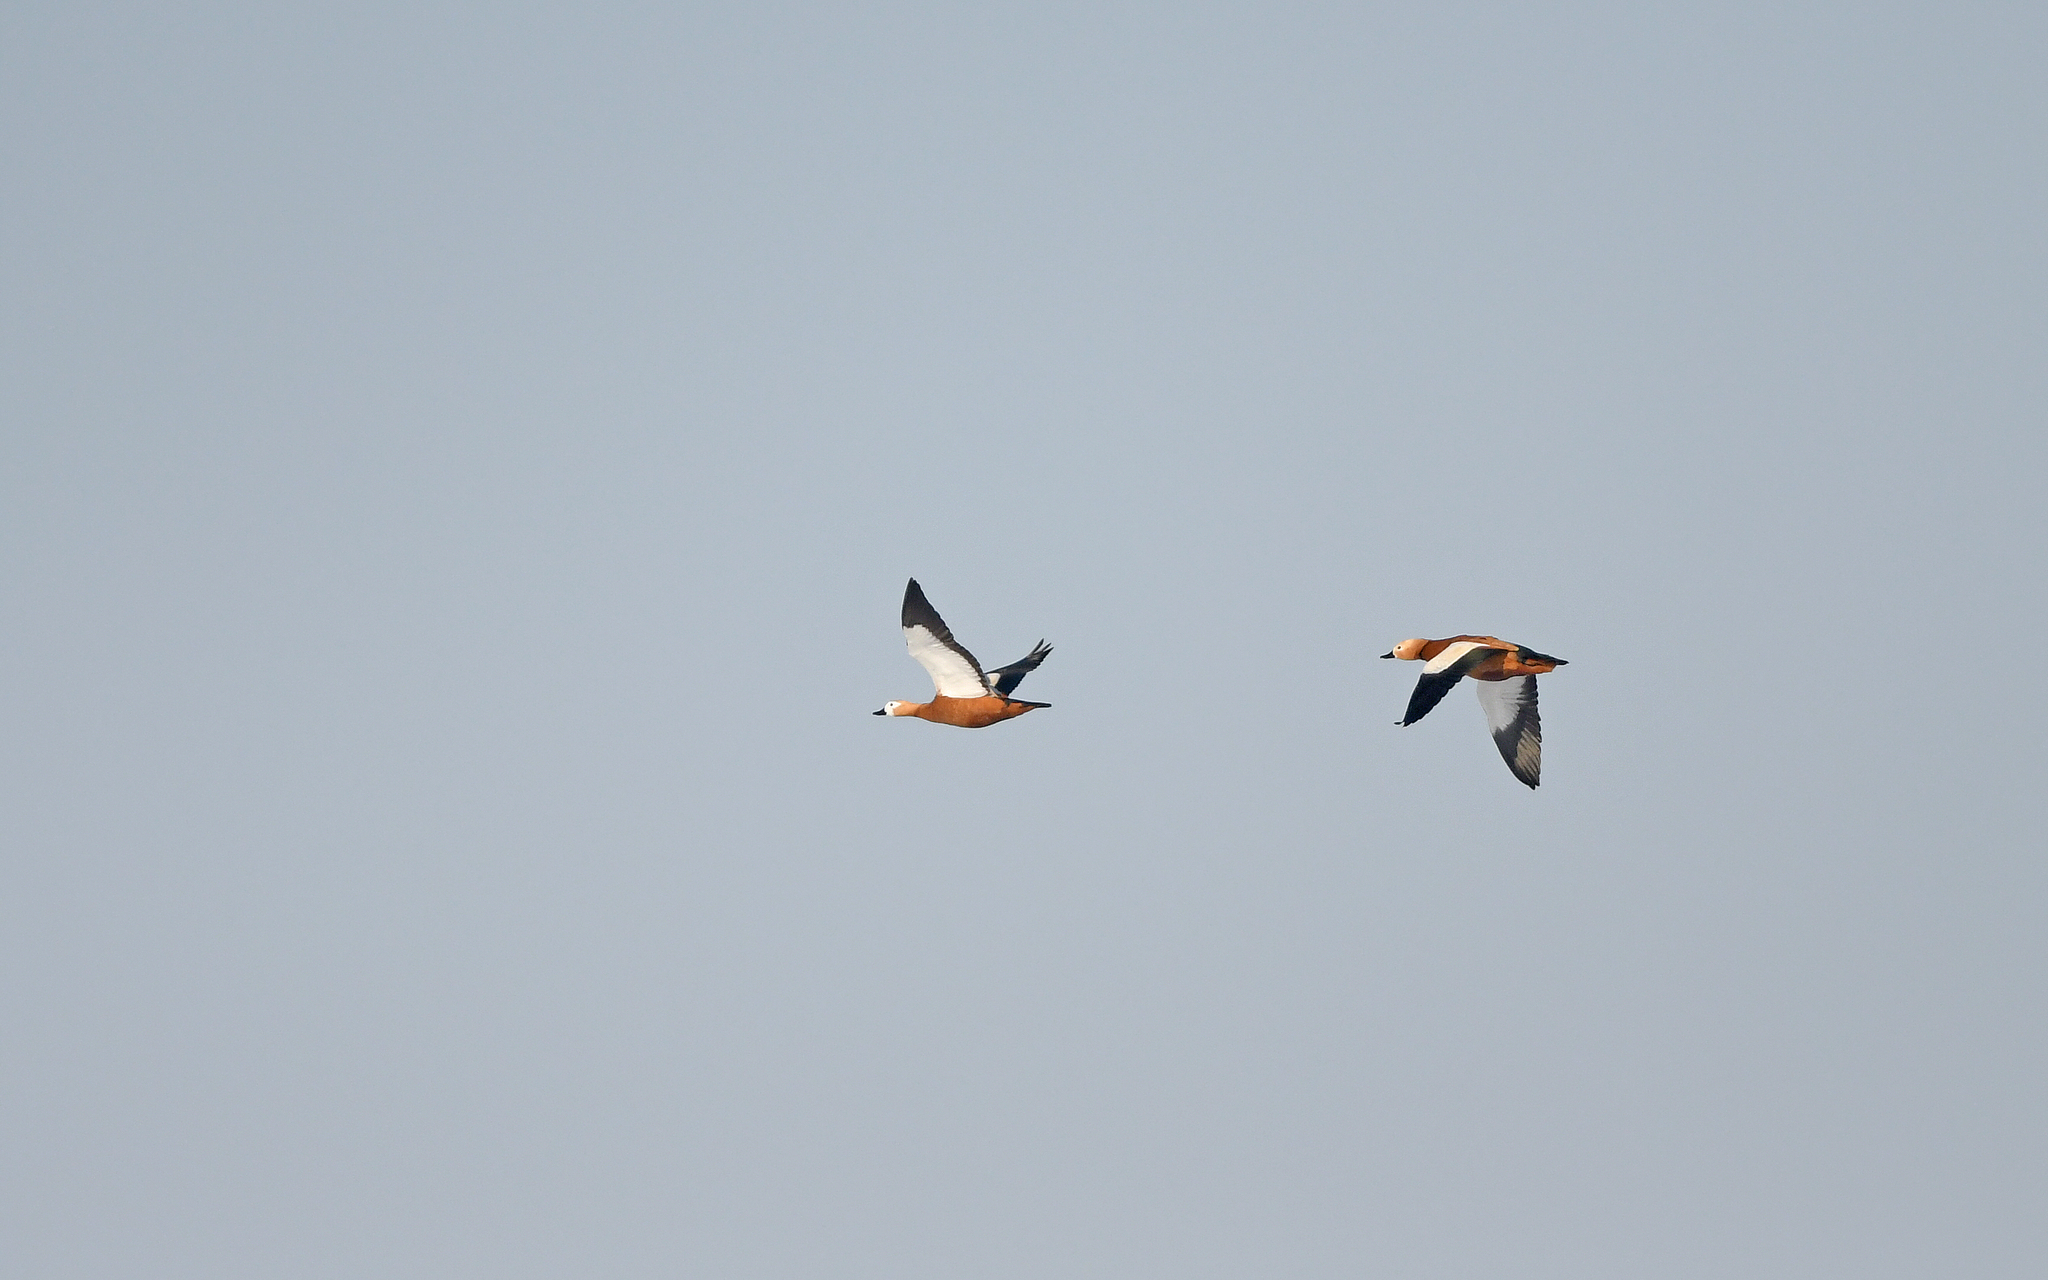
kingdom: Animalia
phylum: Chordata
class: Aves
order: Anseriformes
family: Anatidae
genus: Tadorna
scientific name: Tadorna ferruginea
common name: Ruddy shelduck
